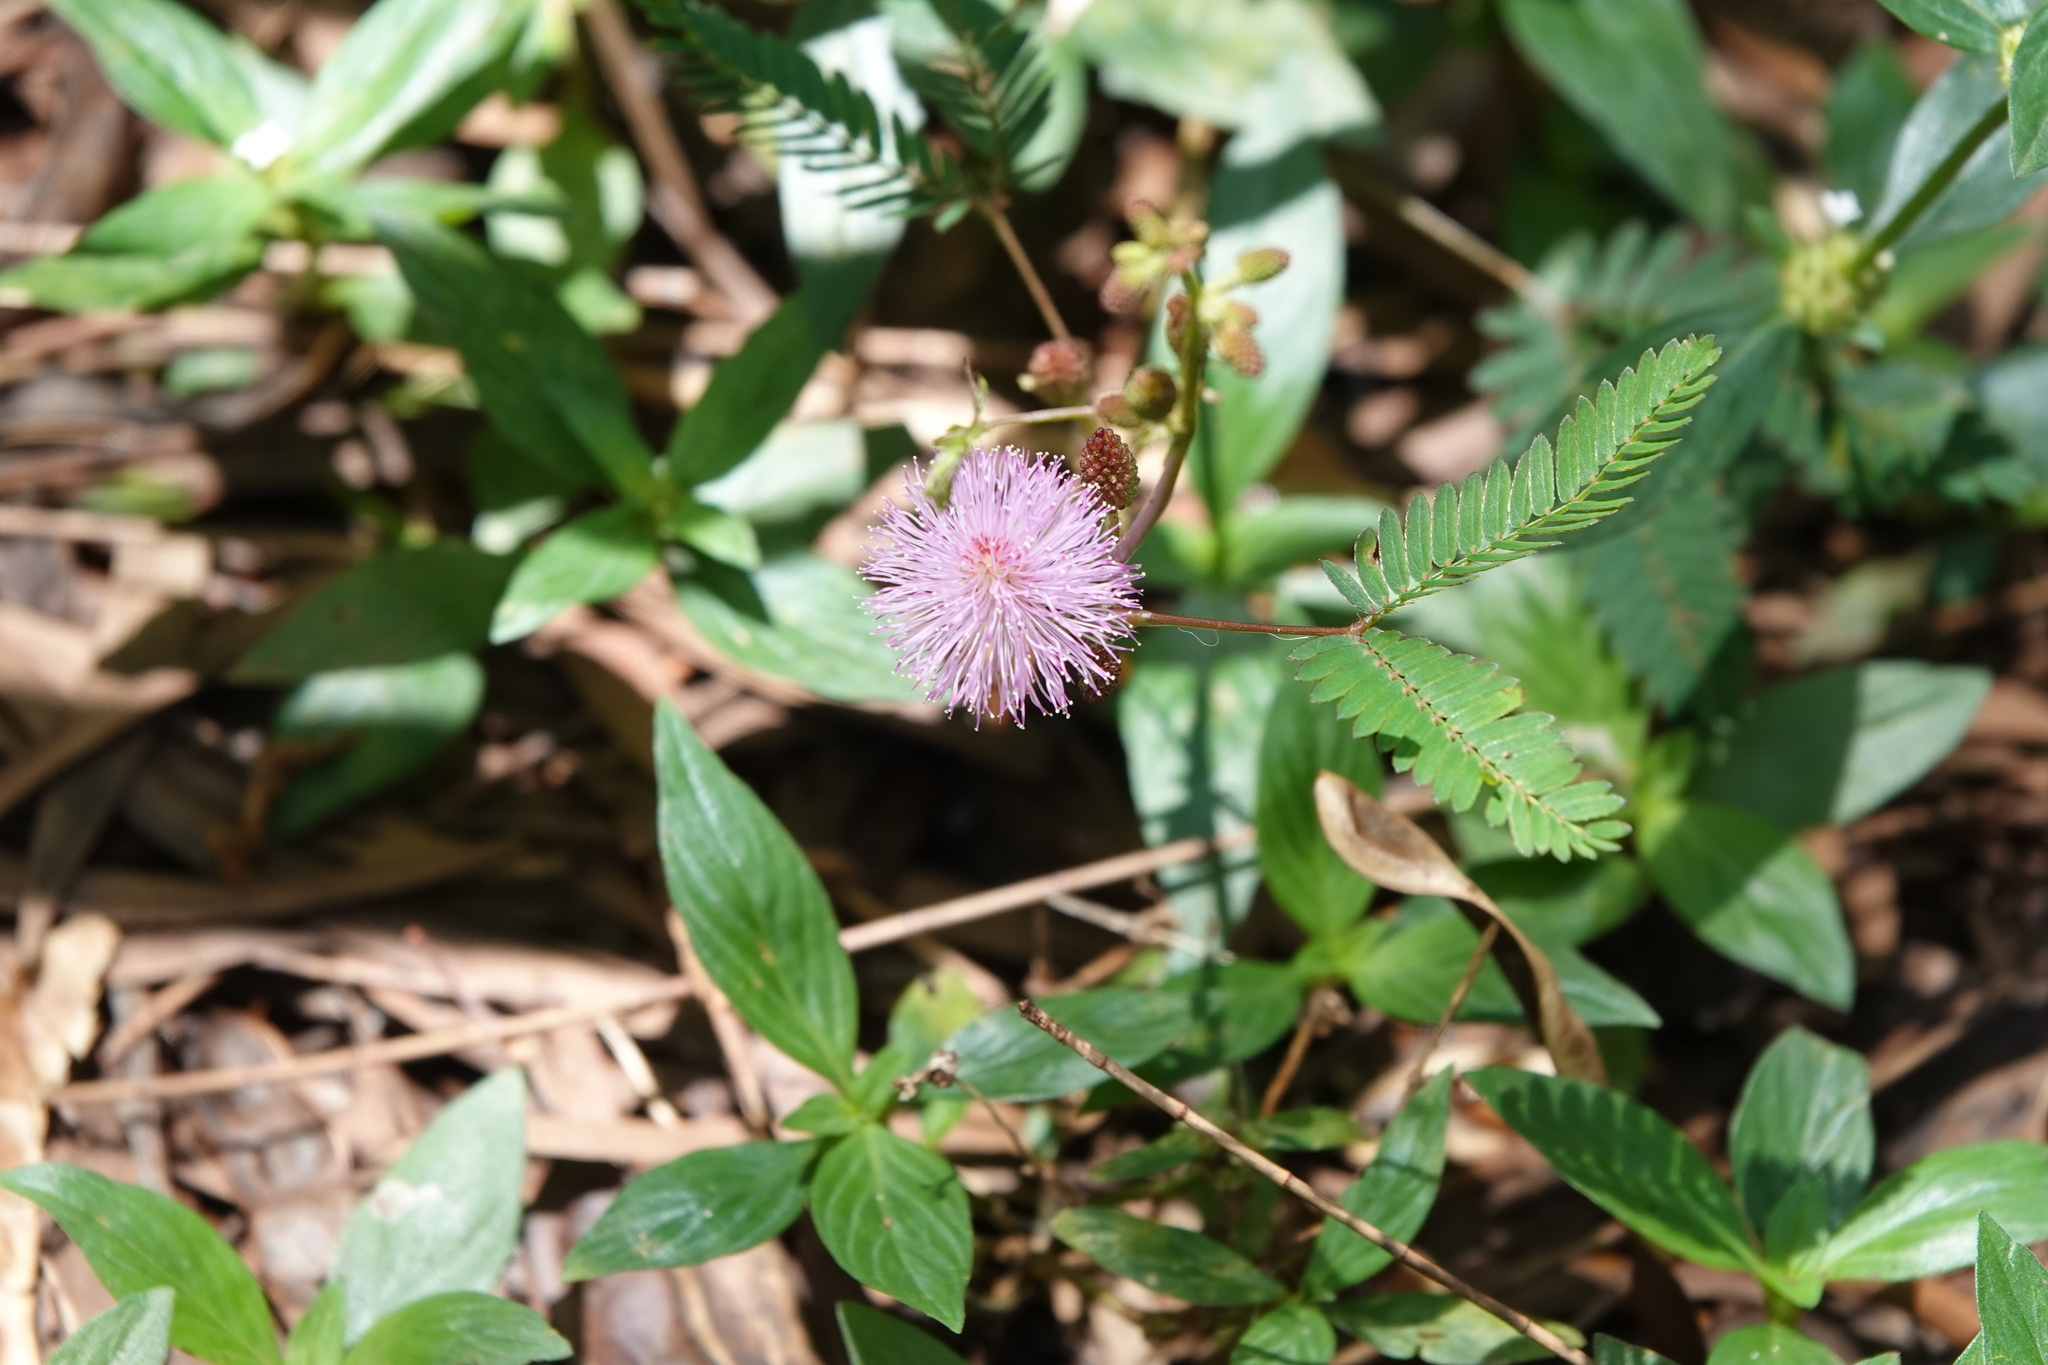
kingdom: Plantae
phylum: Tracheophyta
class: Magnoliopsida
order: Fabales
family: Fabaceae
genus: Mimosa
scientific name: Mimosa pudica
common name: Sensitive plant
